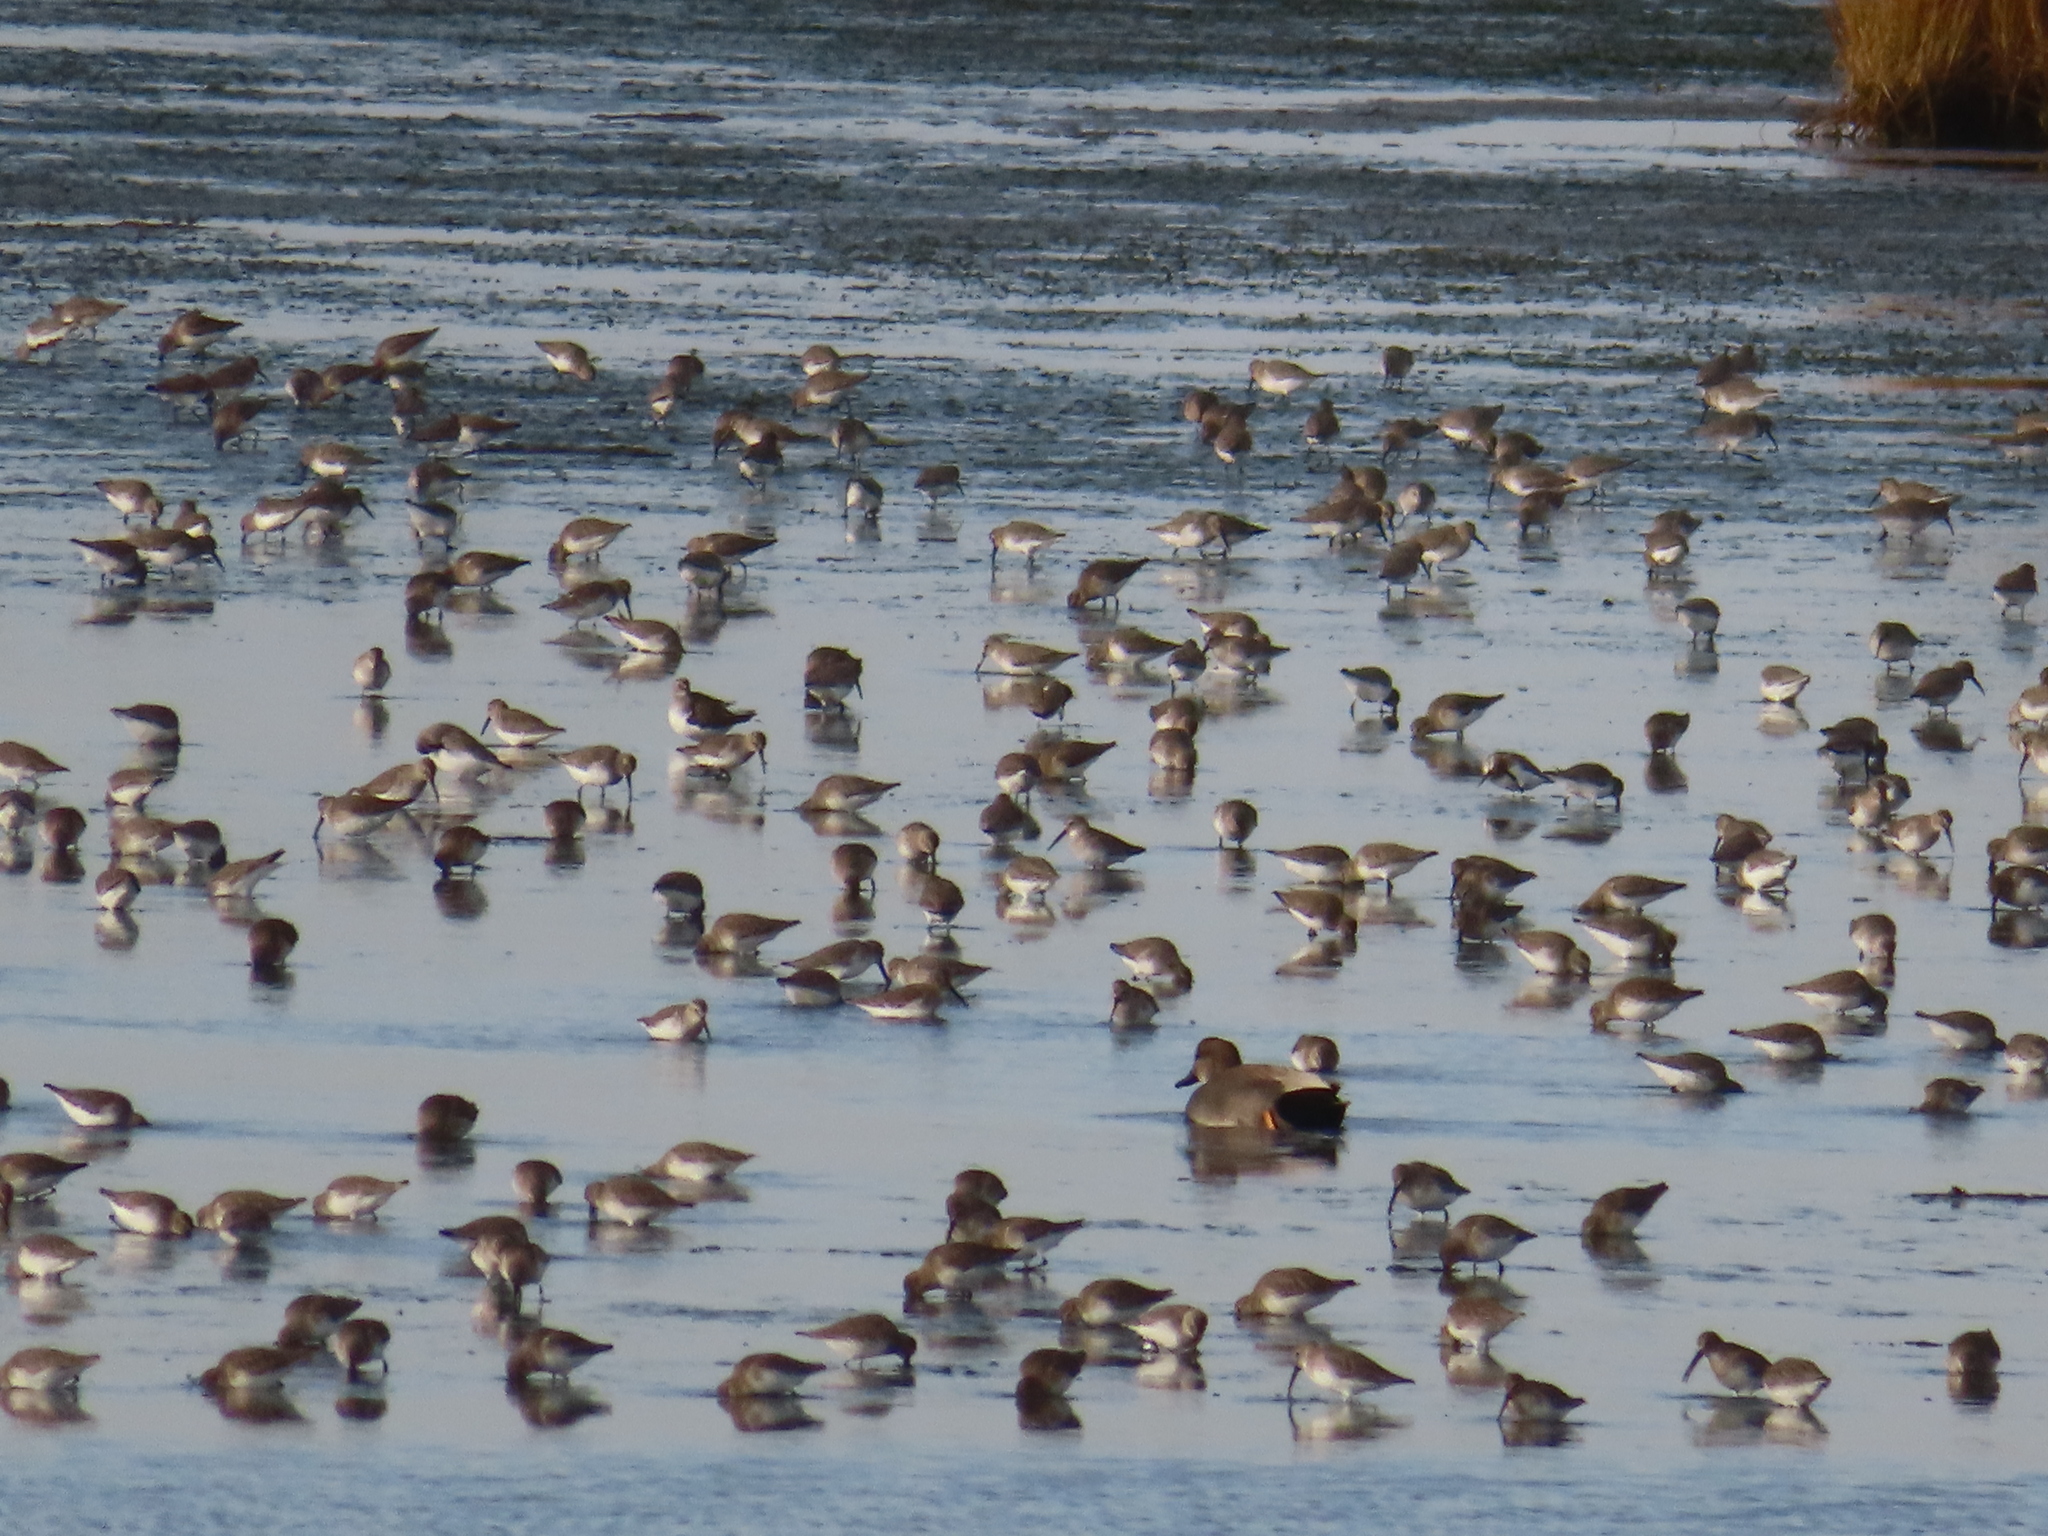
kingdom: Animalia
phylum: Chordata
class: Aves
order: Charadriiformes
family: Scolopacidae
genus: Calidris
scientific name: Calidris alpina
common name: Dunlin
